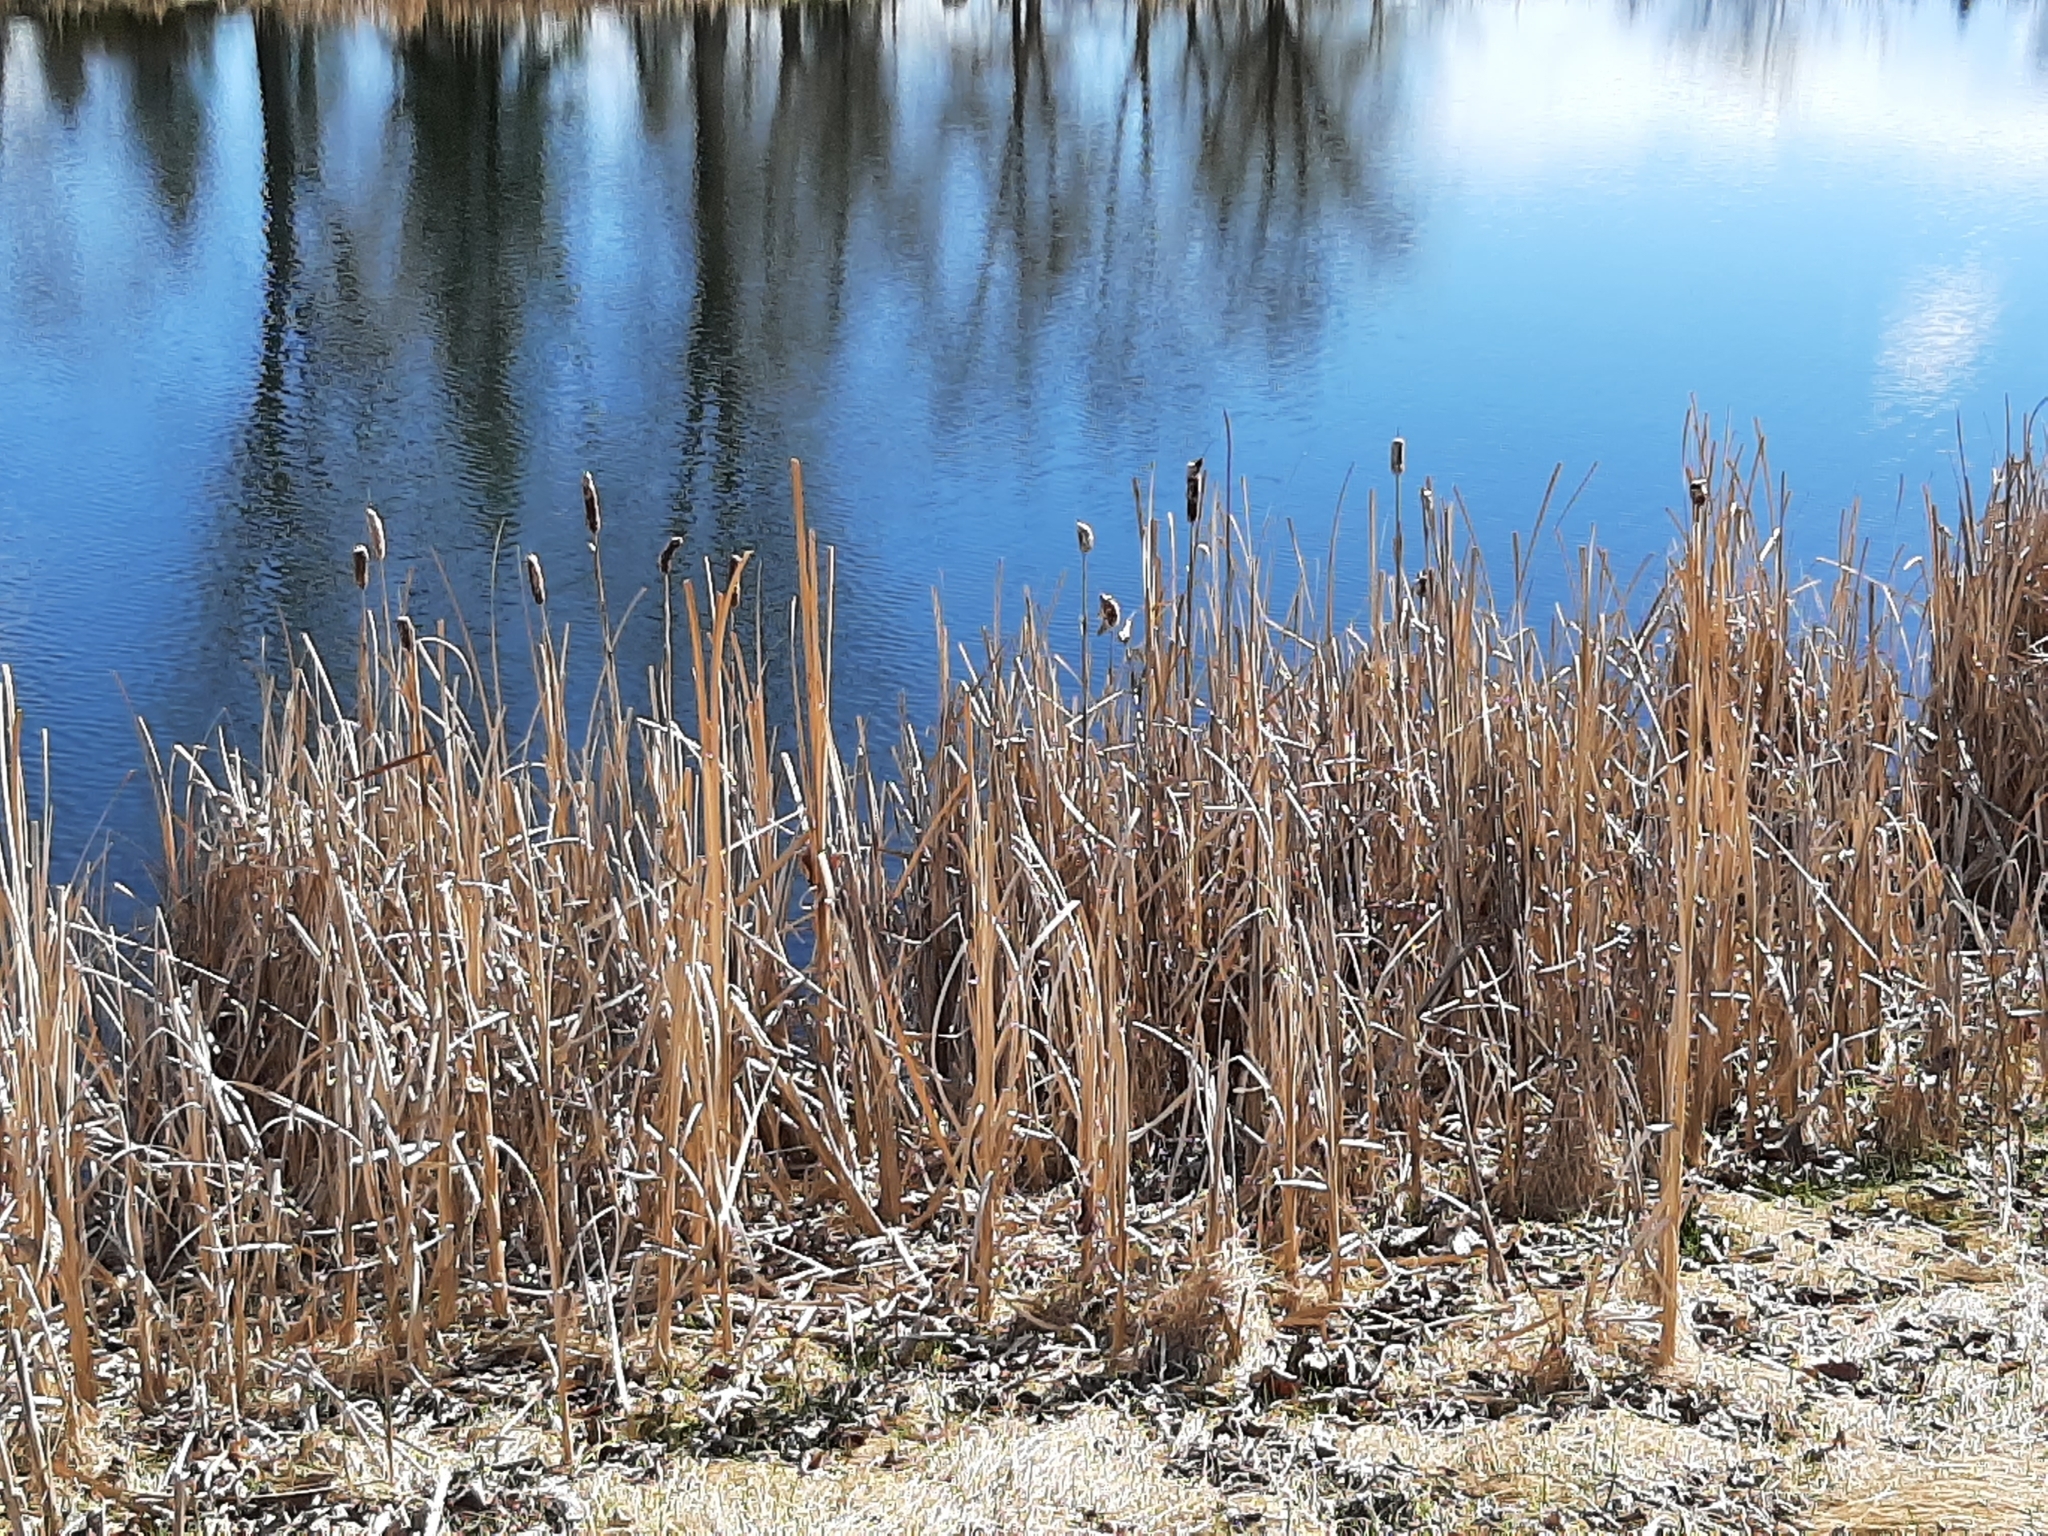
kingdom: Plantae
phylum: Tracheophyta
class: Liliopsida
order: Poales
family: Typhaceae
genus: Typha
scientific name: Typha latifolia
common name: Broadleaf cattail
